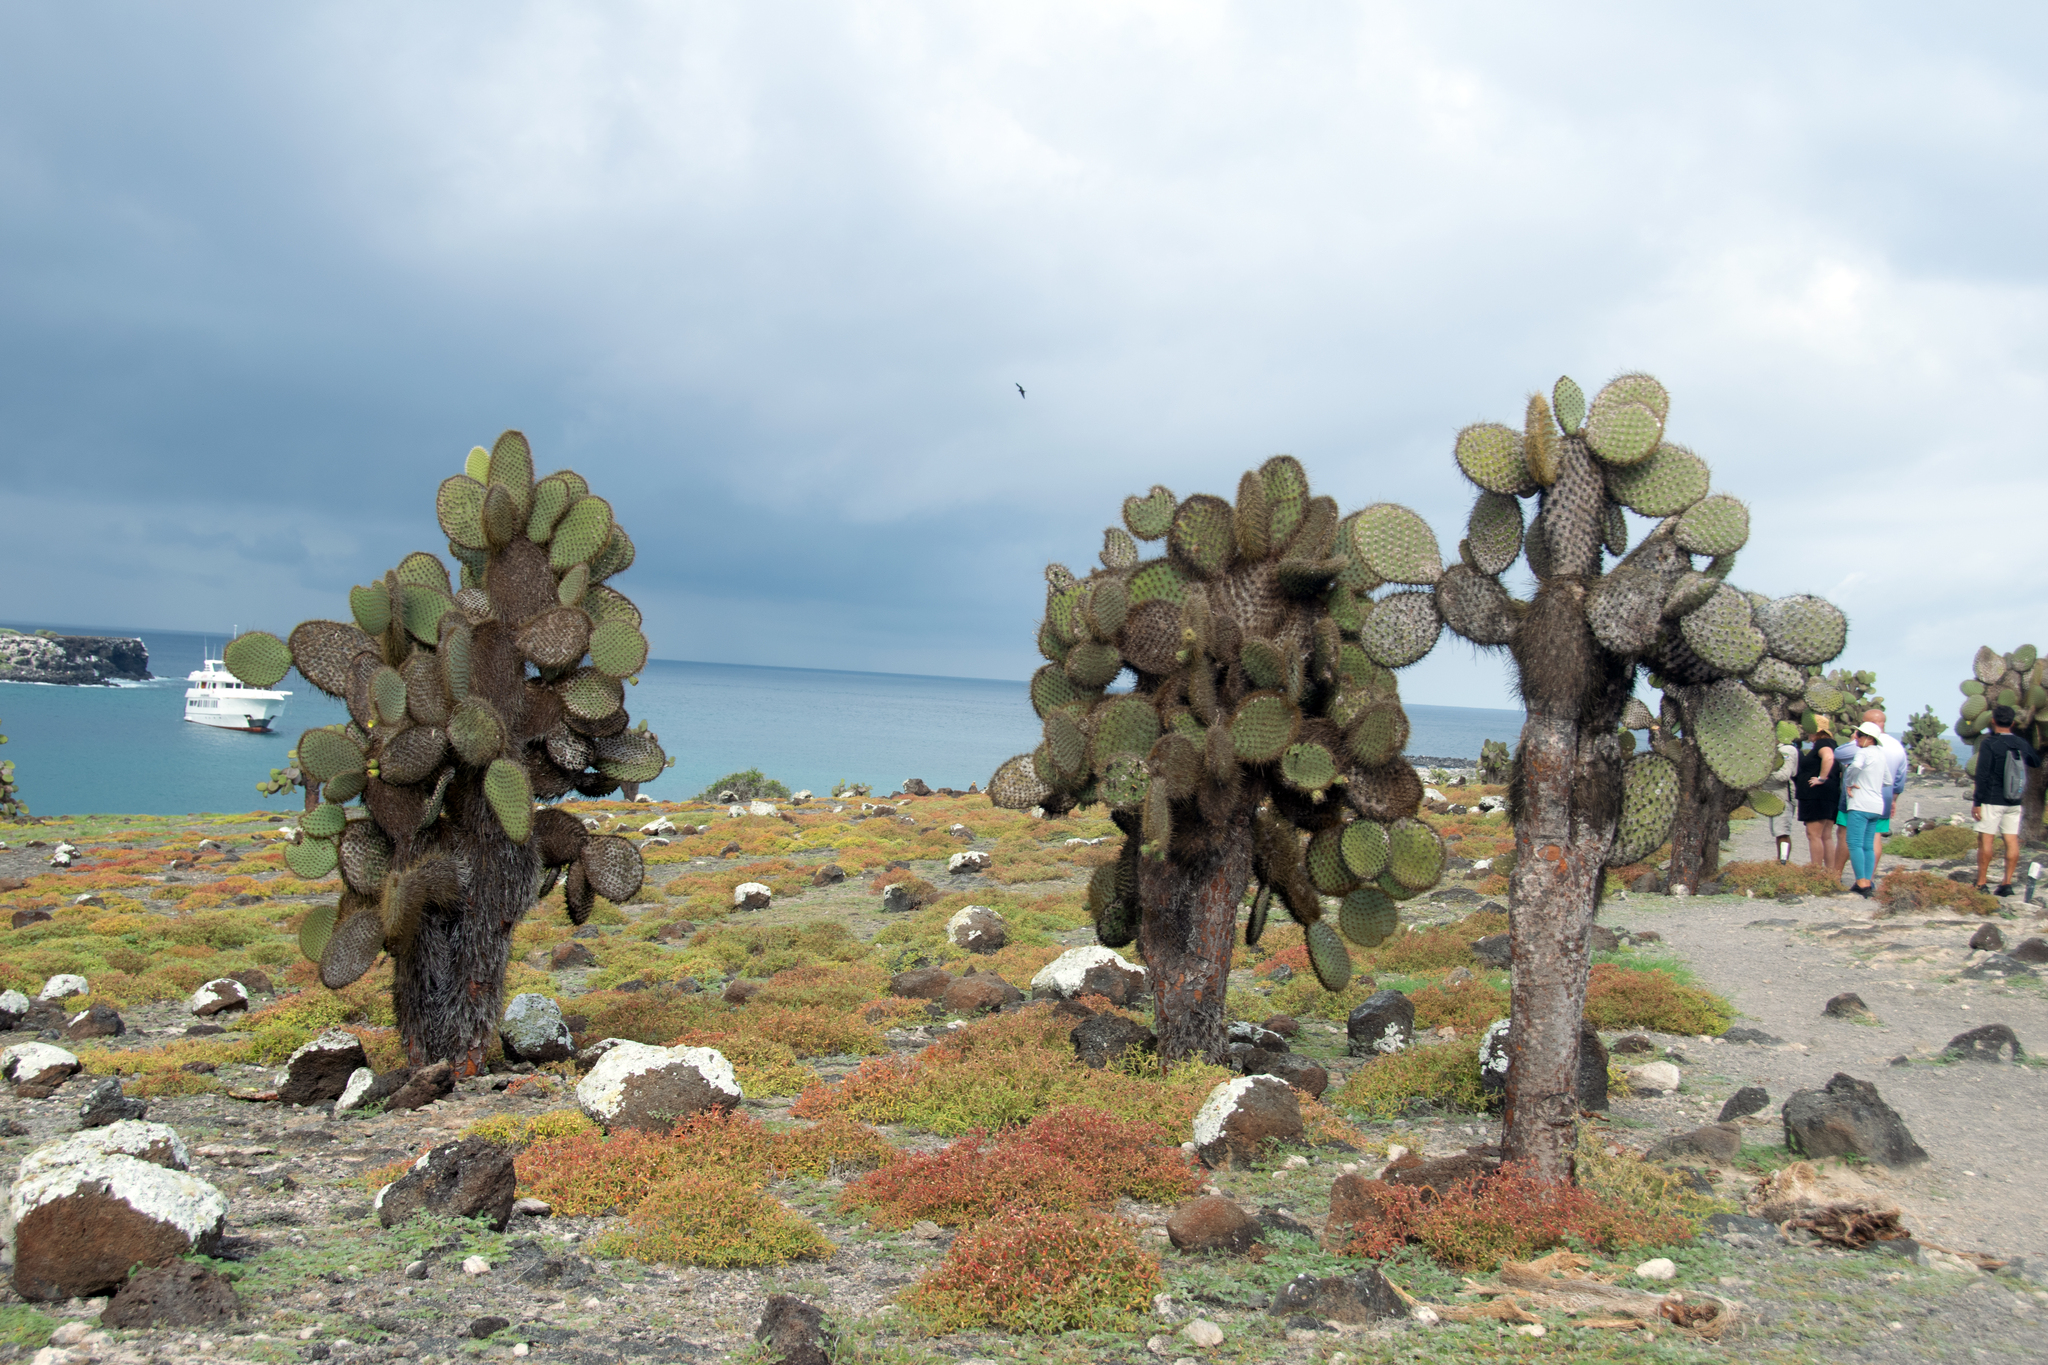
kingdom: Plantae
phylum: Tracheophyta
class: Magnoliopsida
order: Caryophyllales
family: Cactaceae
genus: Opuntia
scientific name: Opuntia galapageia
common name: Galápagos prickly pear
